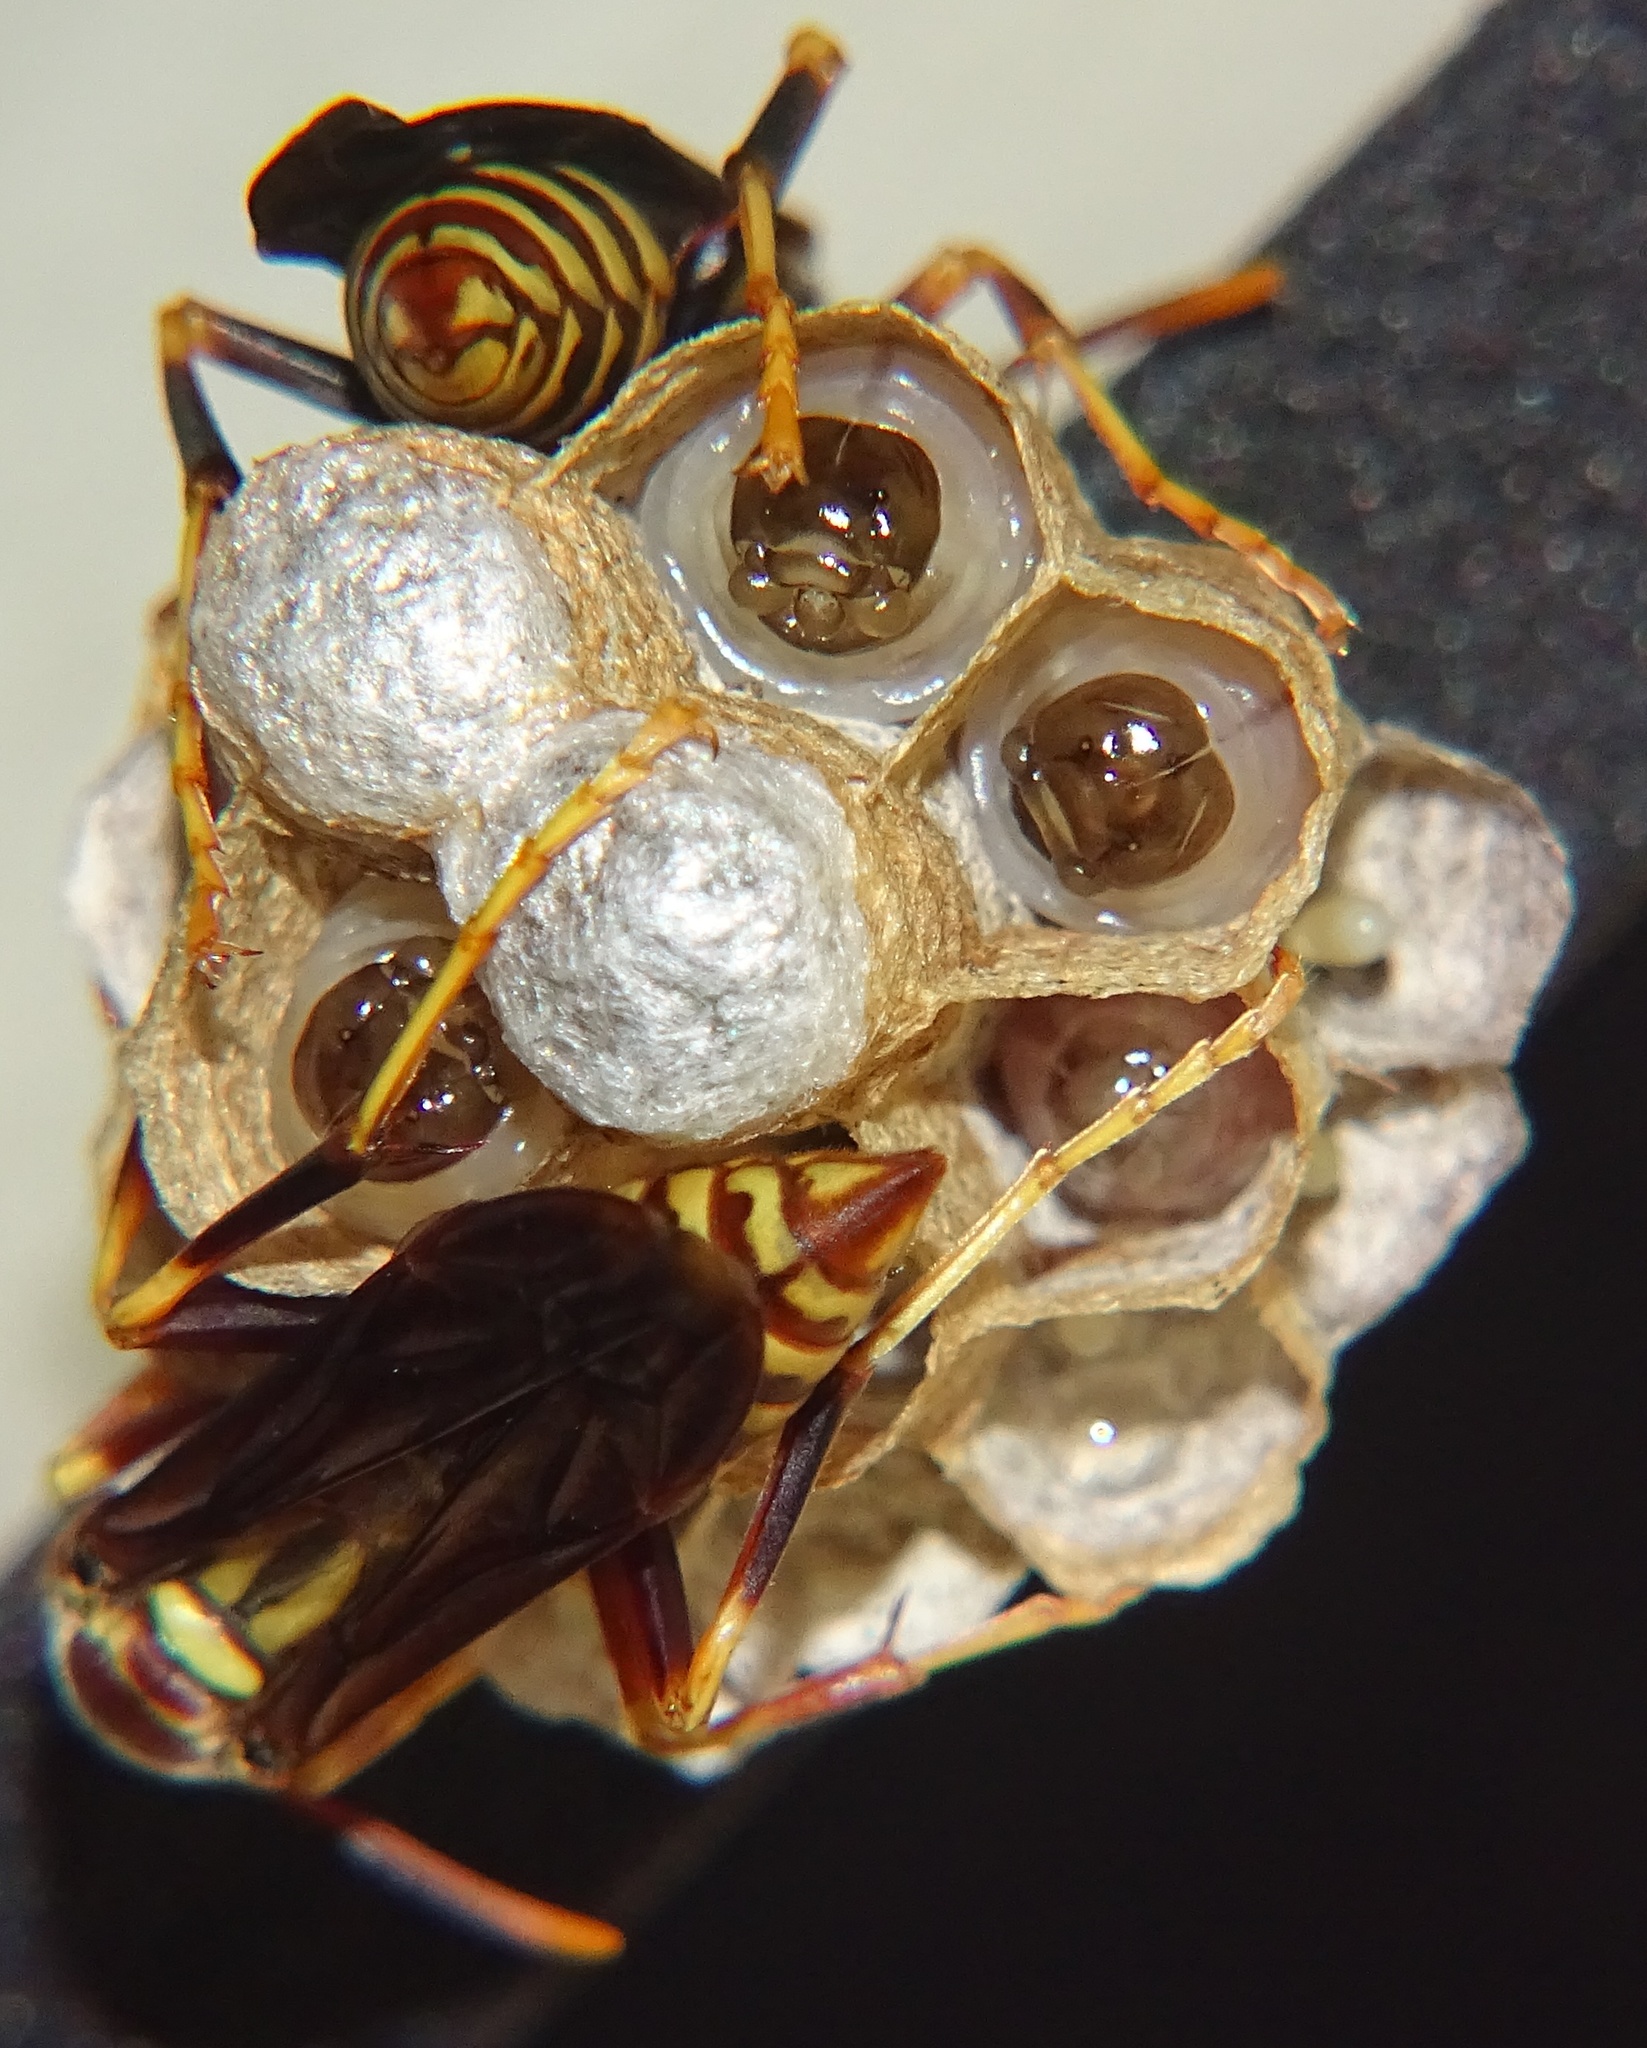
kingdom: Animalia
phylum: Arthropoda
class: Insecta
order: Hymenoptera
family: Eumenidae
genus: Polistes
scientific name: Polistes exclamans
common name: Paper wasp
